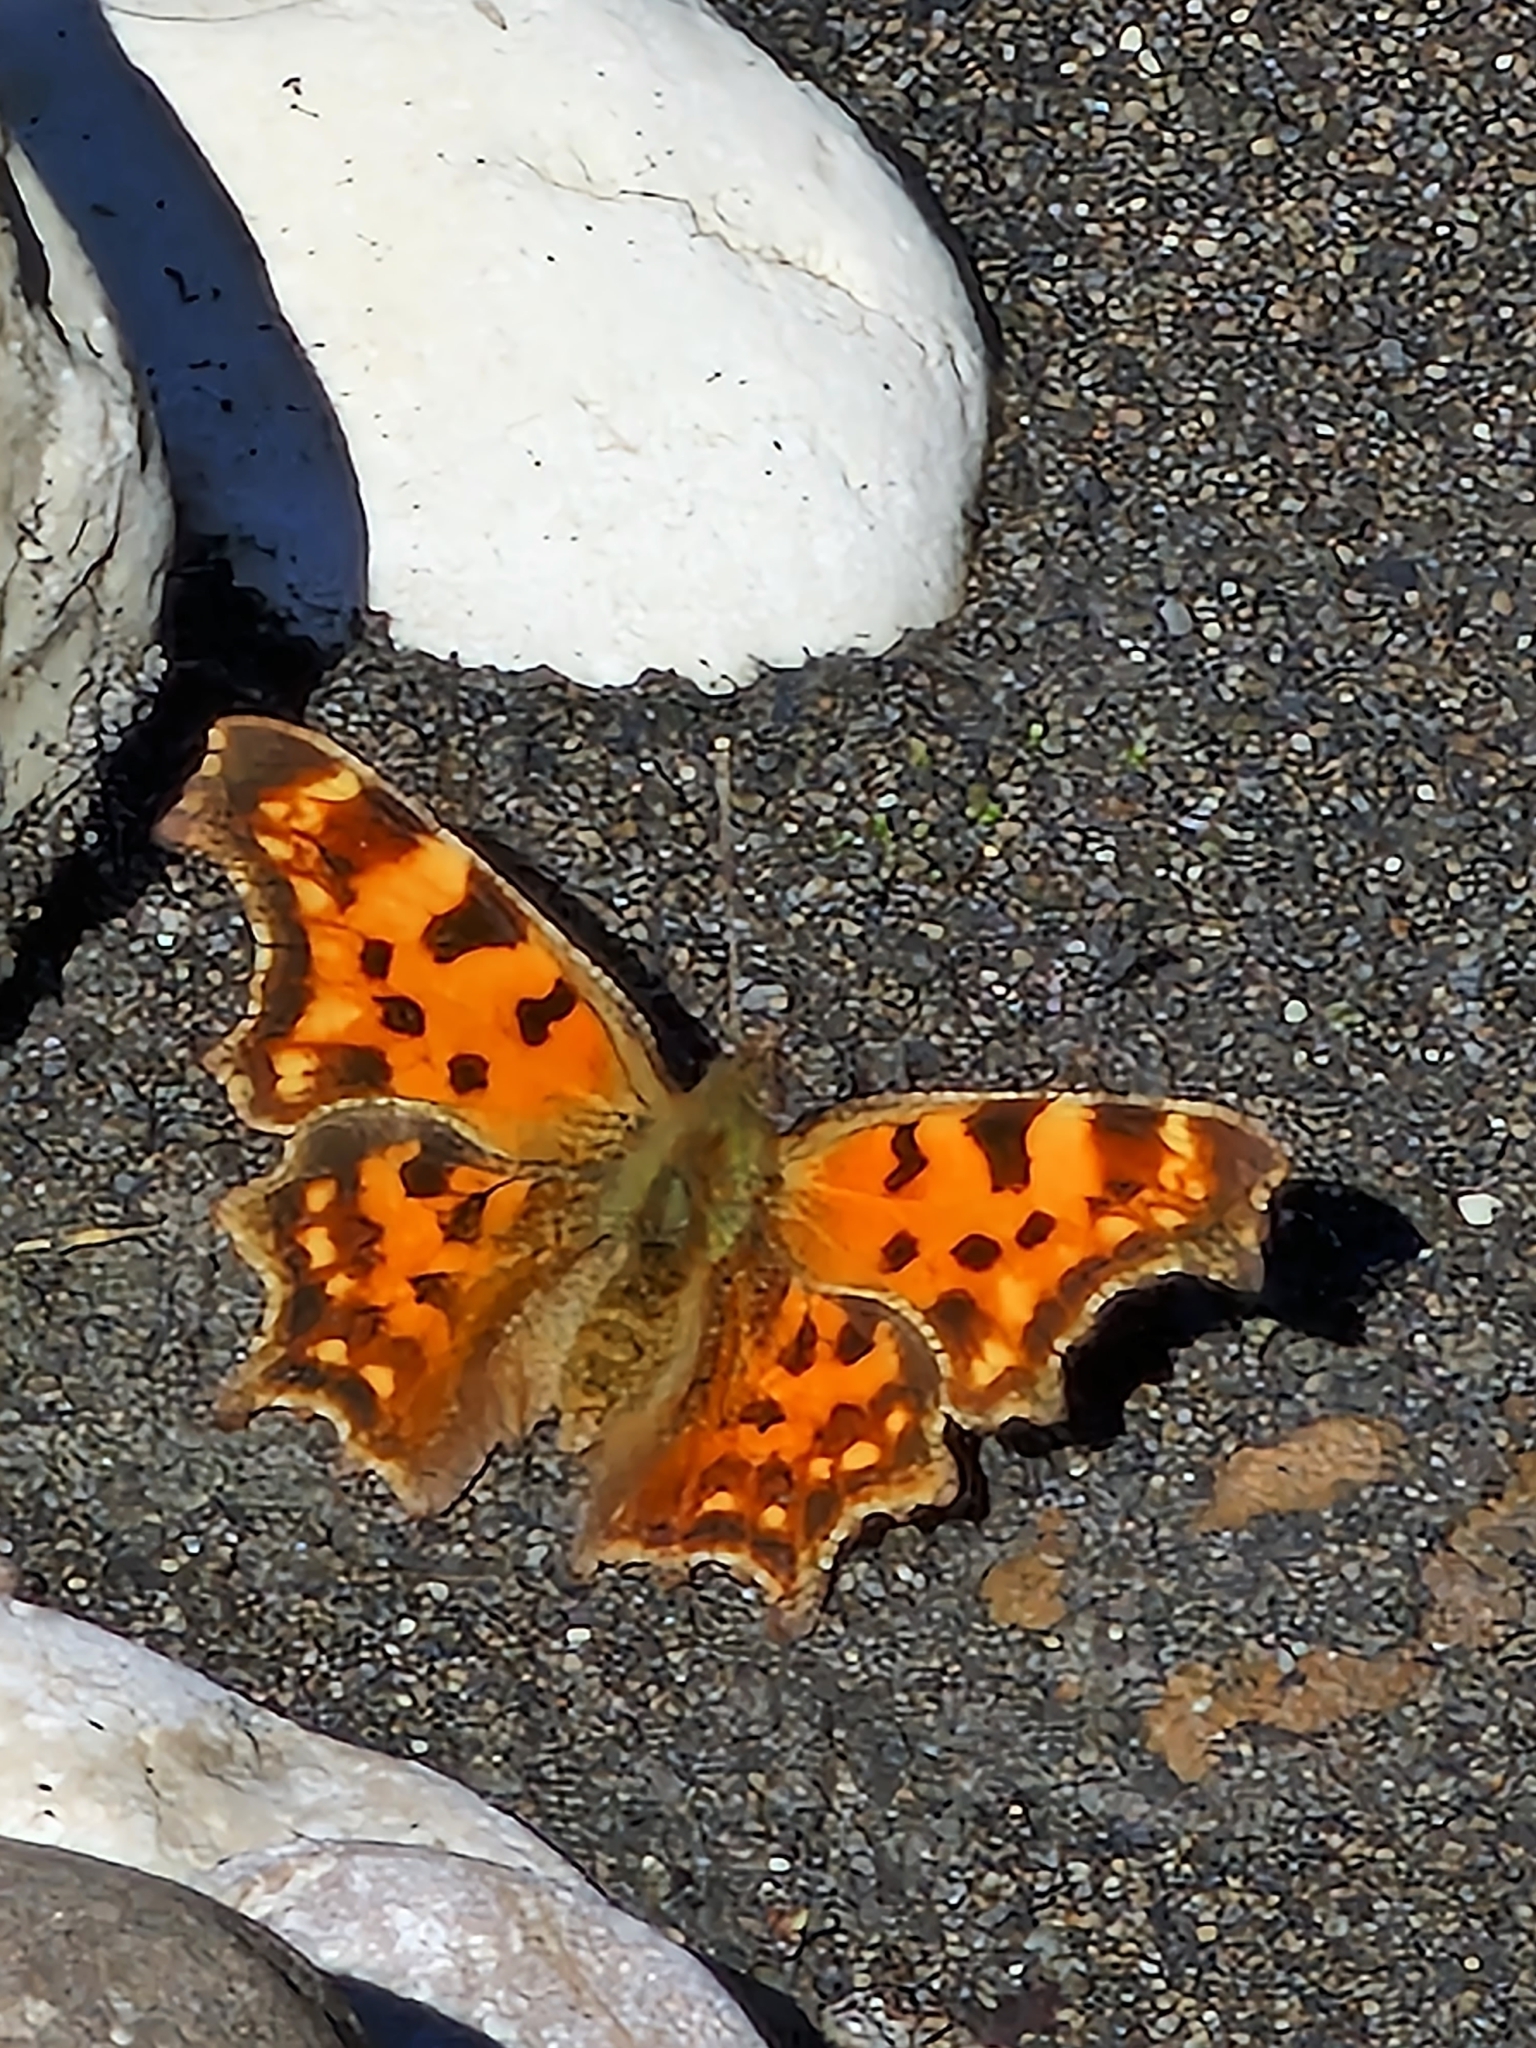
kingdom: Animalia
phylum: Arthropoda
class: Insecta
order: Lepidoptera
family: Nymphalidae
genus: Polygonia
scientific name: Polygonia c-album
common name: Comma
